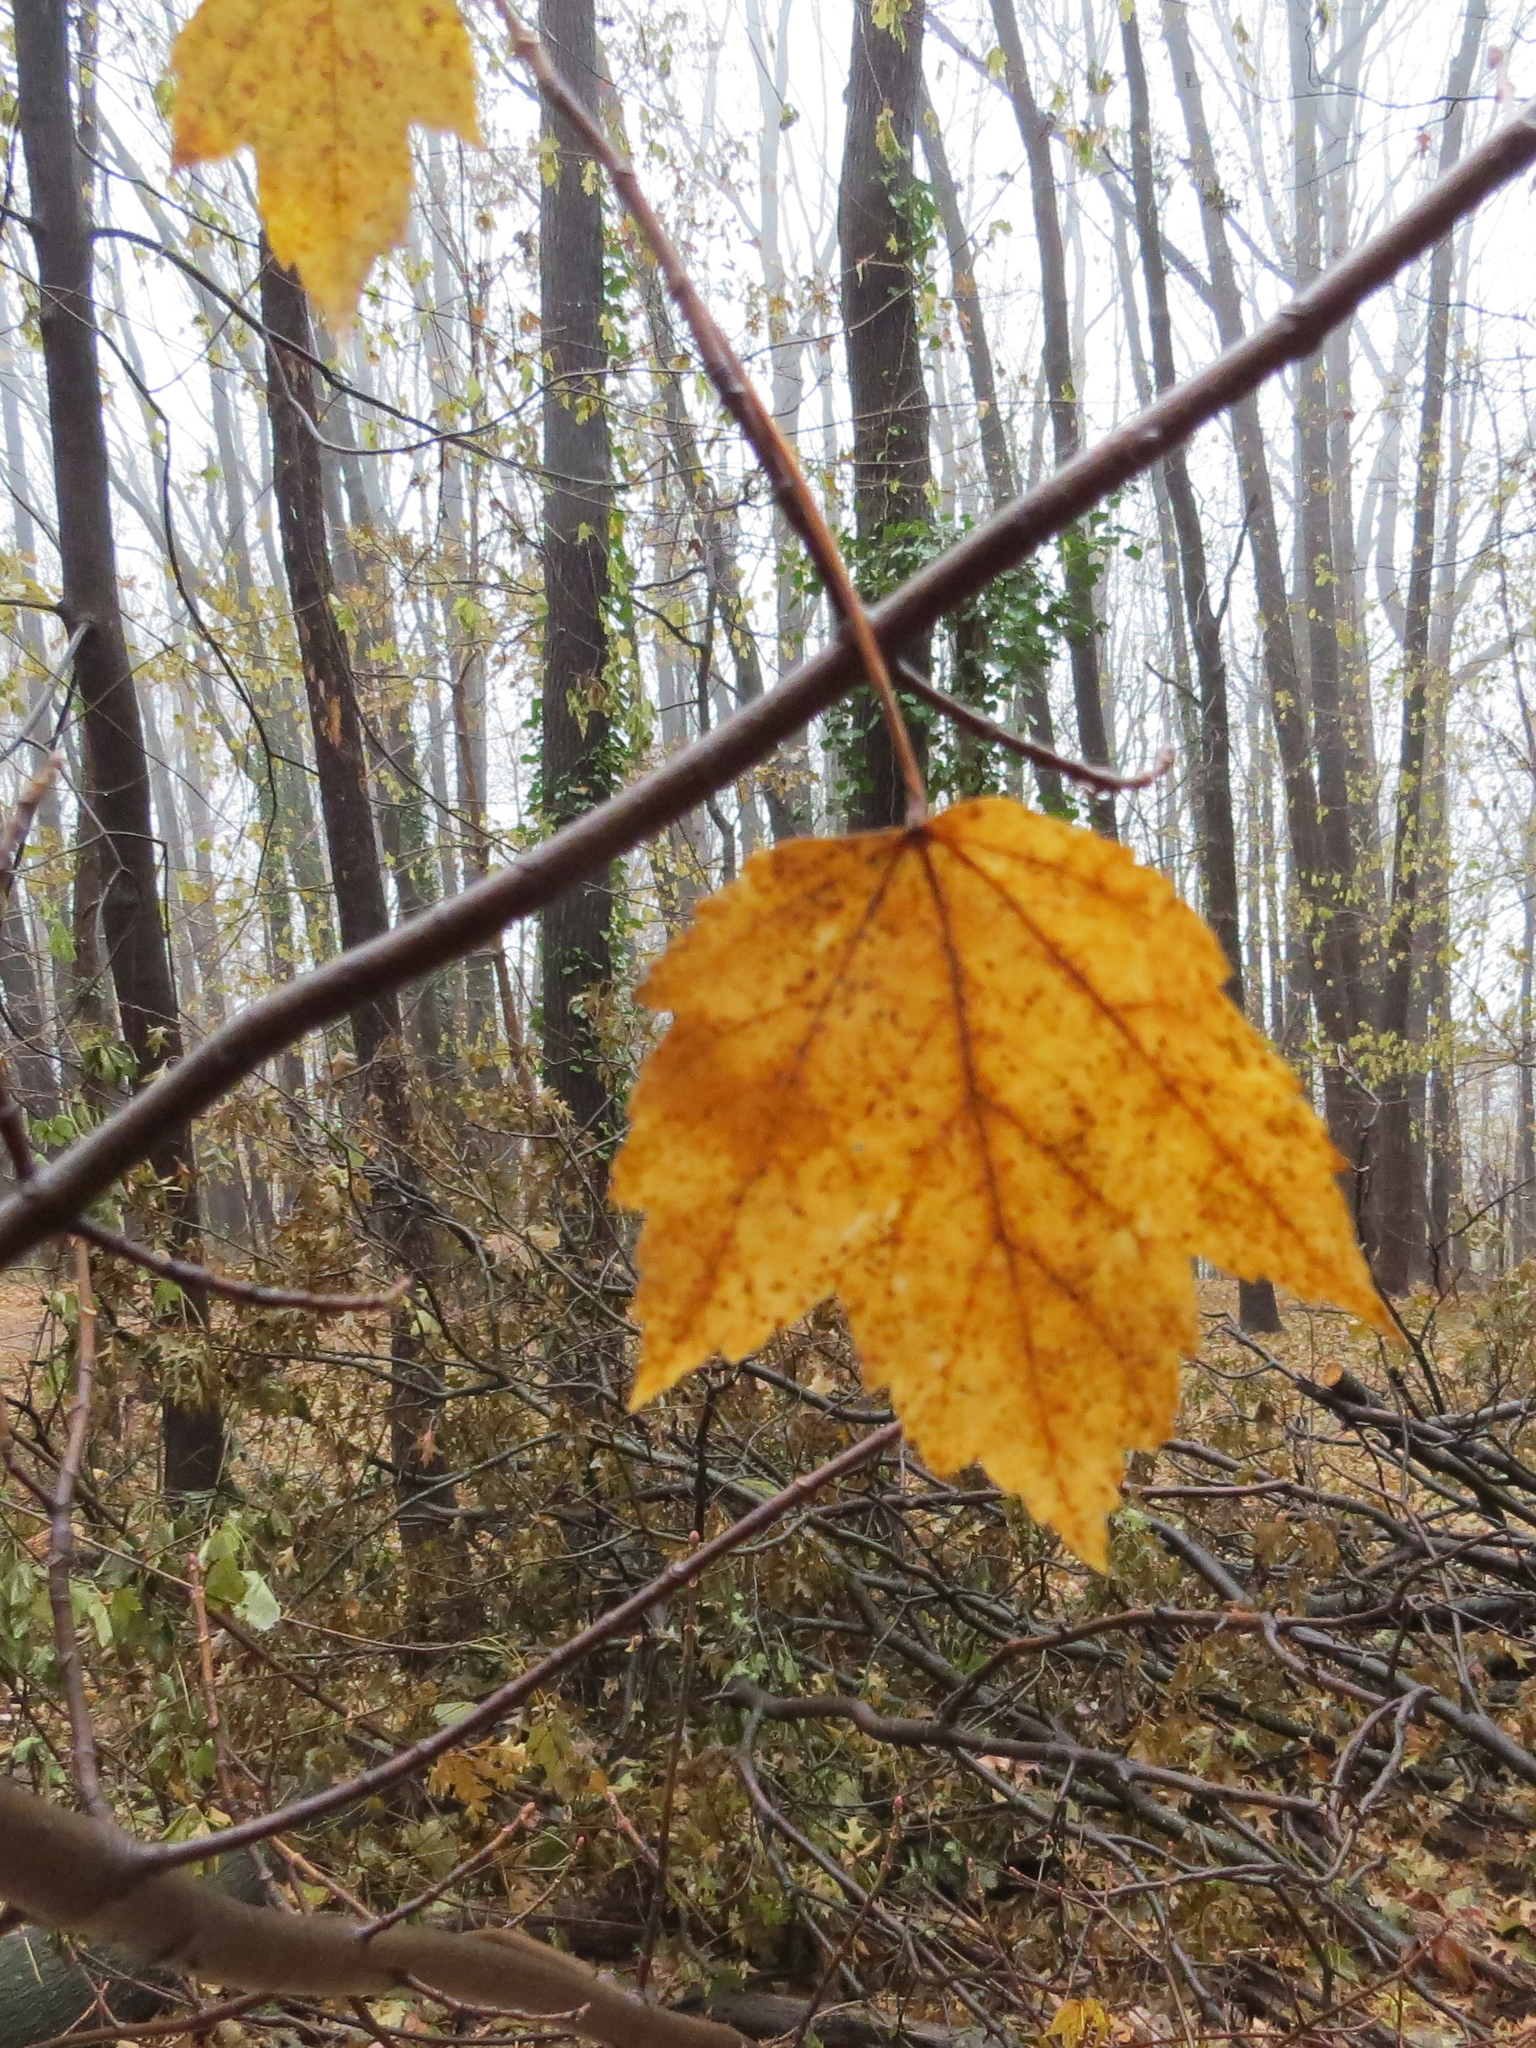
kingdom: Plantae
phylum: Tracheophyta
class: Magnoliopsida
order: Sapindales
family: Sapindaceae
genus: Acer
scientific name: Acer rubrum
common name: Red maple
